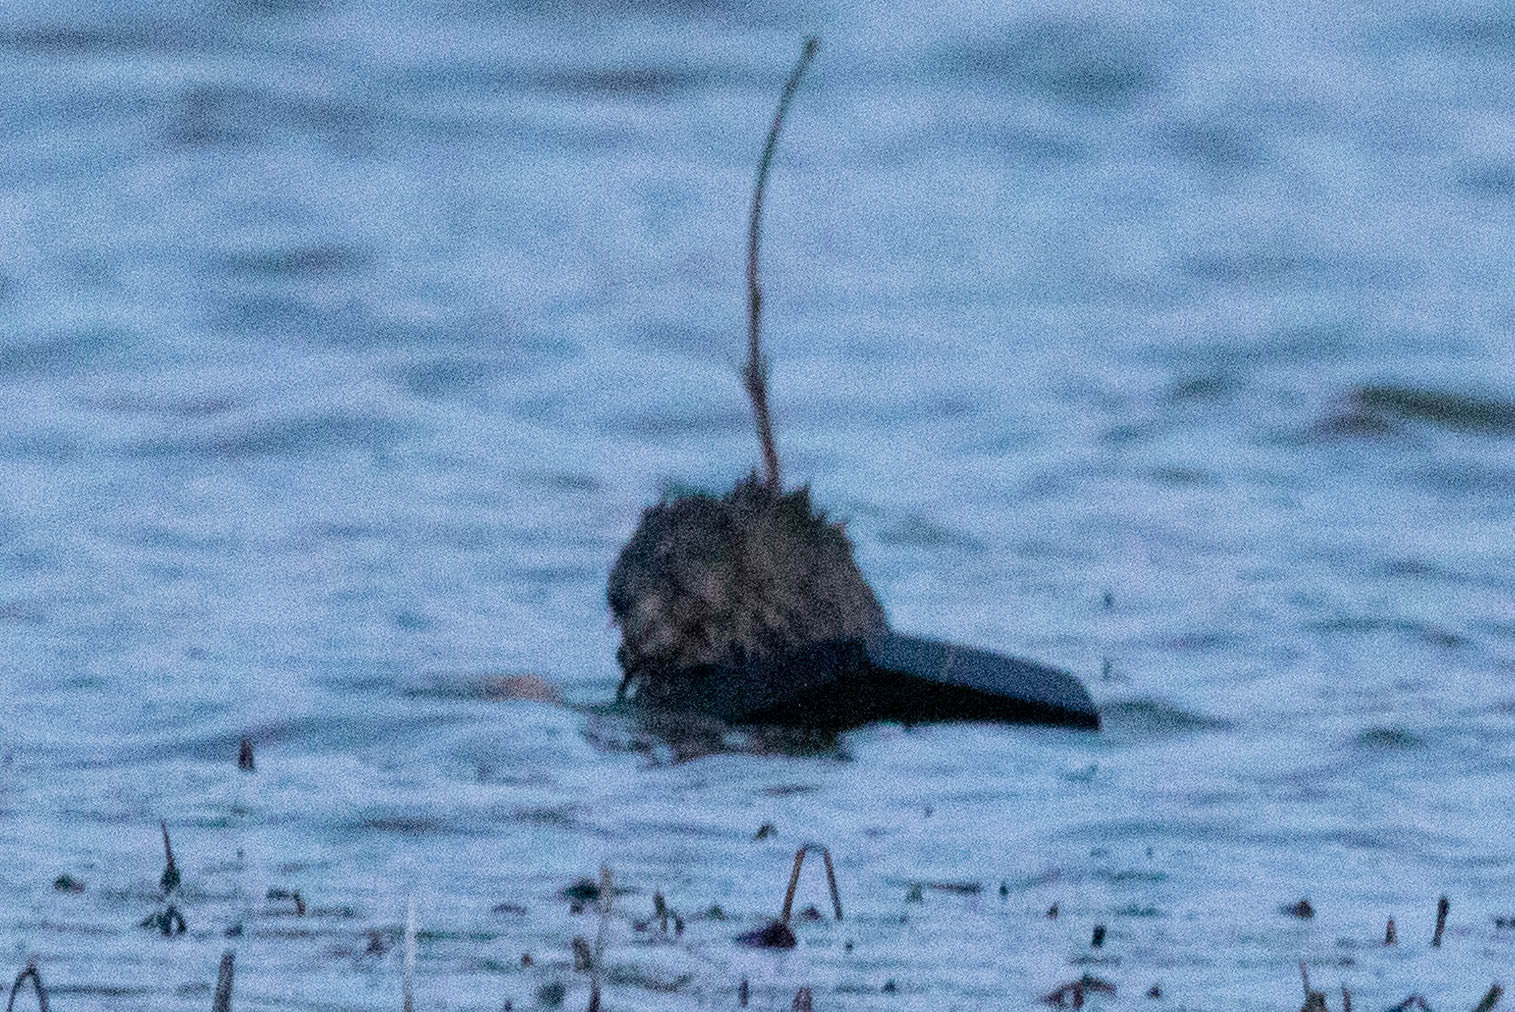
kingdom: Animalia
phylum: Chordata
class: Mammalia
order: Rodentia
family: Cricetidae
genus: Ondatra
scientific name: Ondatra zibethicus
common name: Muskrat
